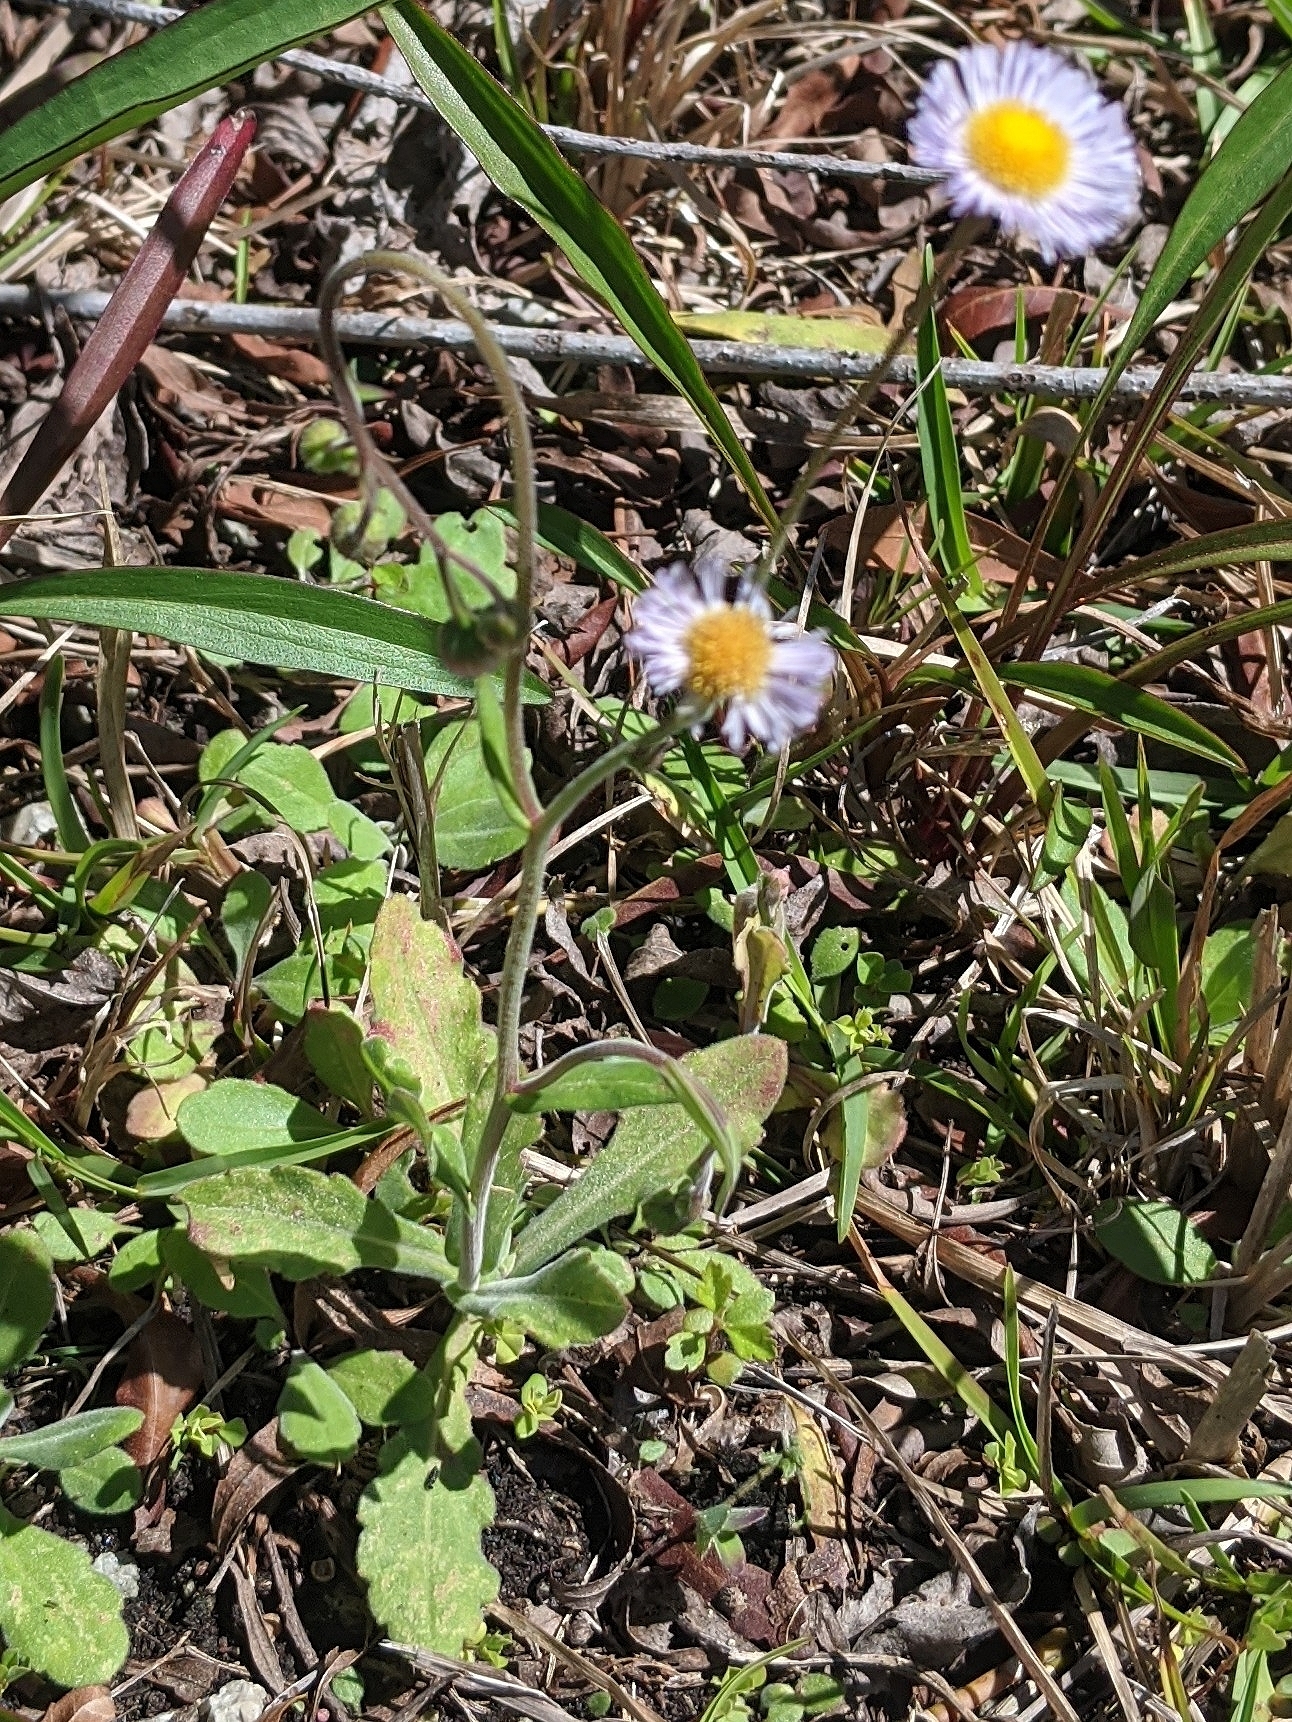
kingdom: Plantae
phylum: Tracheophyta
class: Magnoliopsida
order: Asterales
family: Asteraceae
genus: Erigeron
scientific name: Erigeron quercifolius
